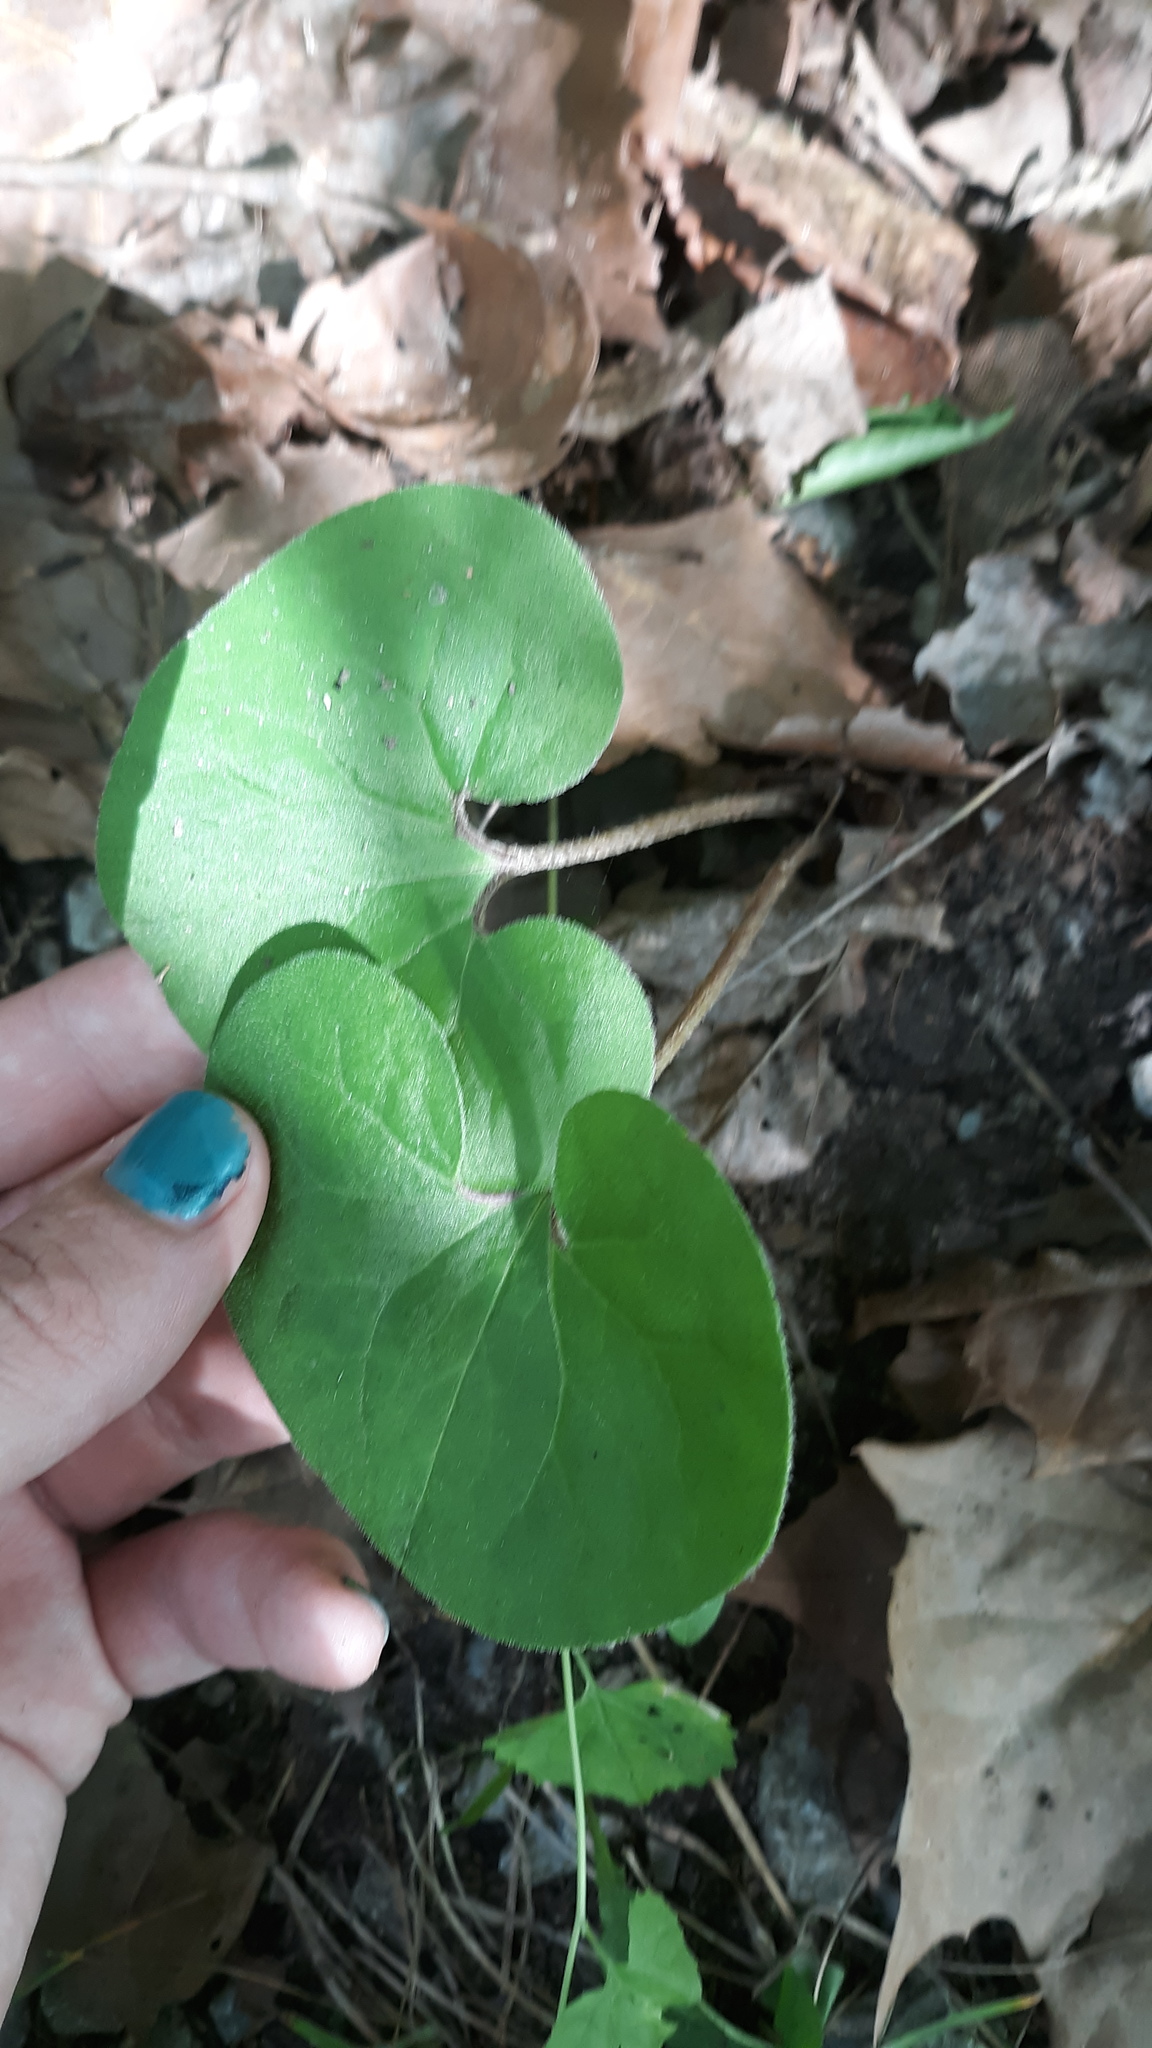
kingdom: Plantae
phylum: Tracheophyta
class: Magnoliopsida
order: Piperales
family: Aristolochiaceae
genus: Asarum
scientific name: Asarum canadense
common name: Wild ginger
